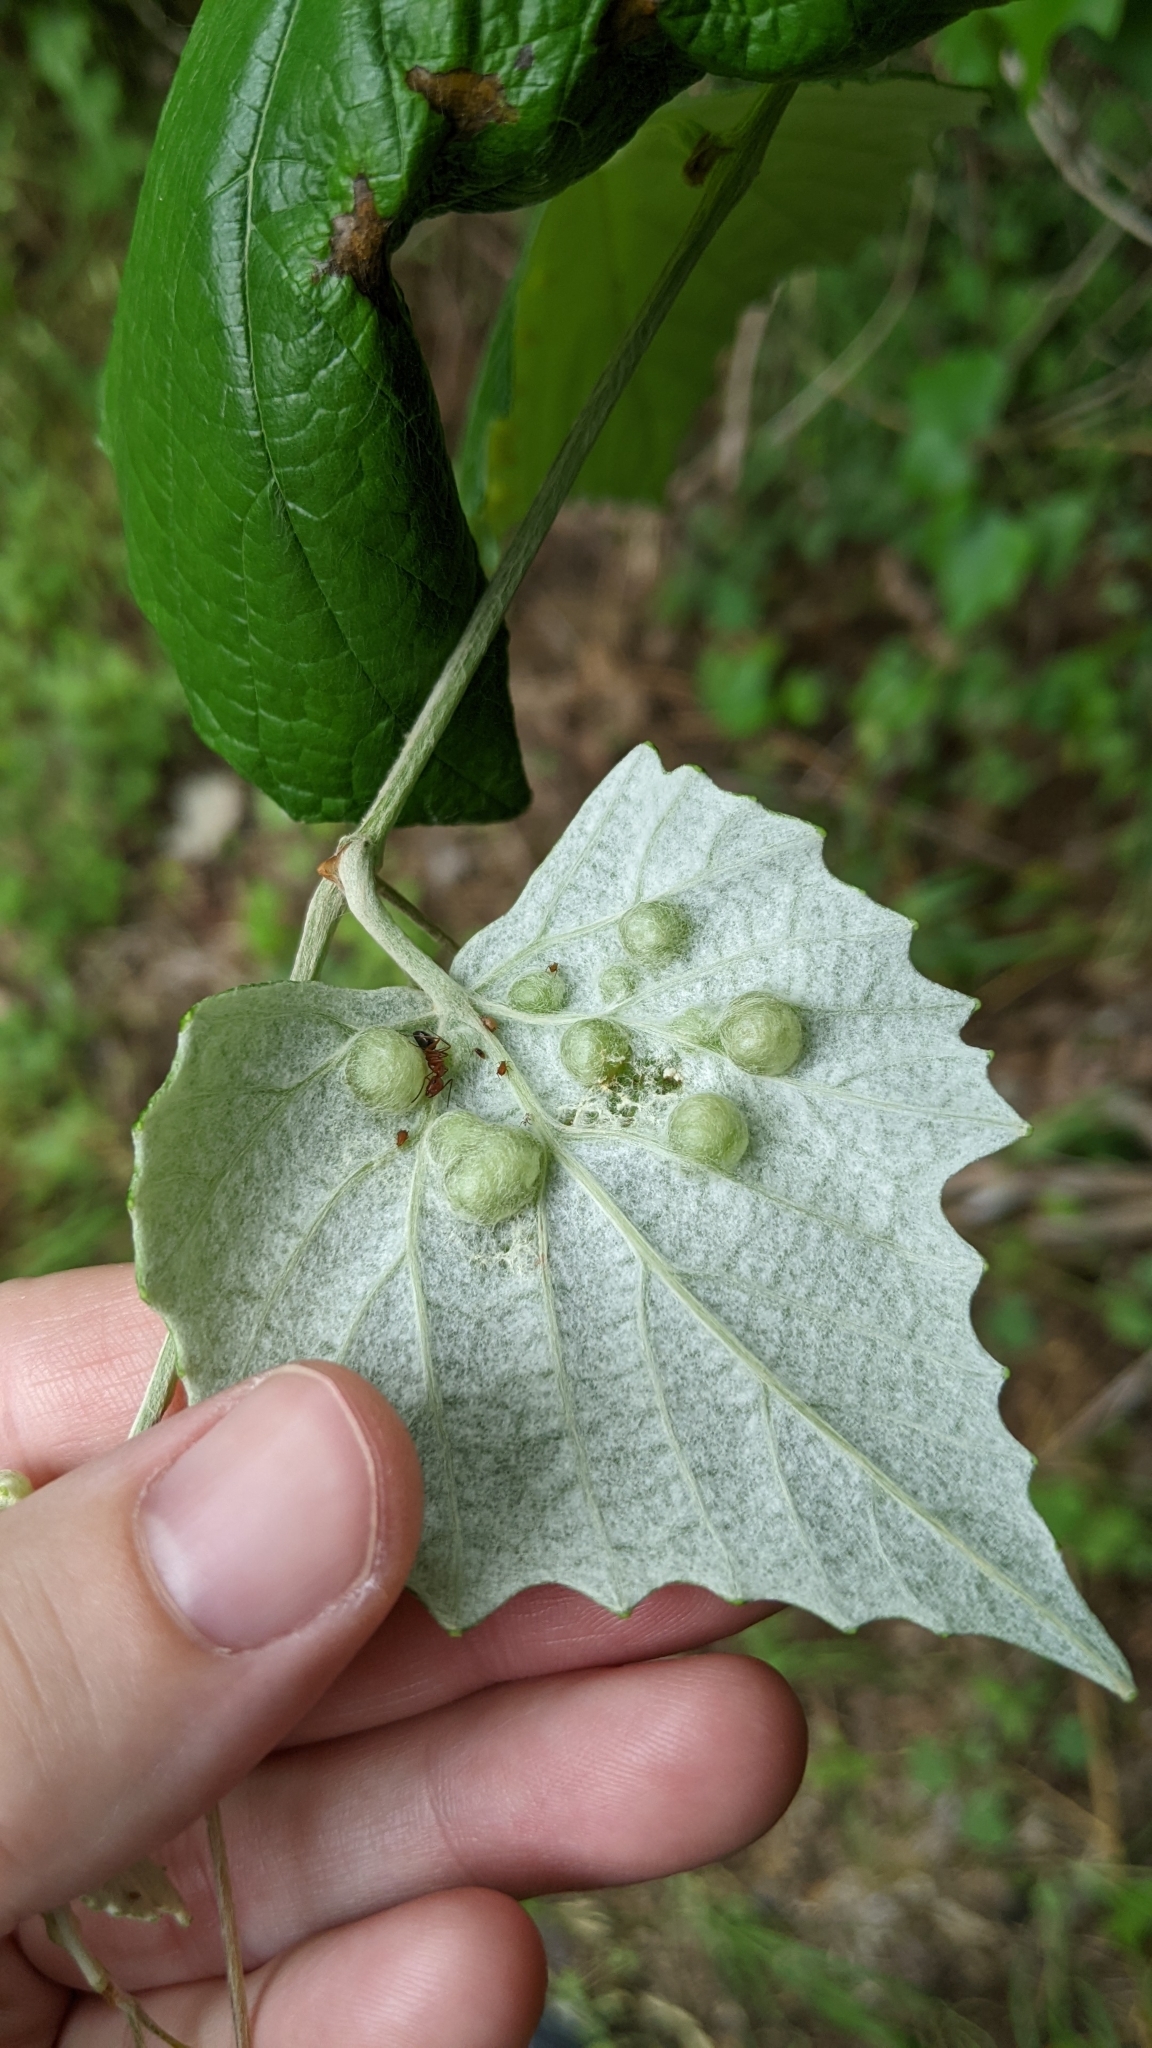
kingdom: Animalia
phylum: Arthropoda
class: Insecta
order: Diptera
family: Cecidomyiidae
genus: Vitisiella
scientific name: Vitisiella brevicauda
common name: Grape tumid gallmaker midge
